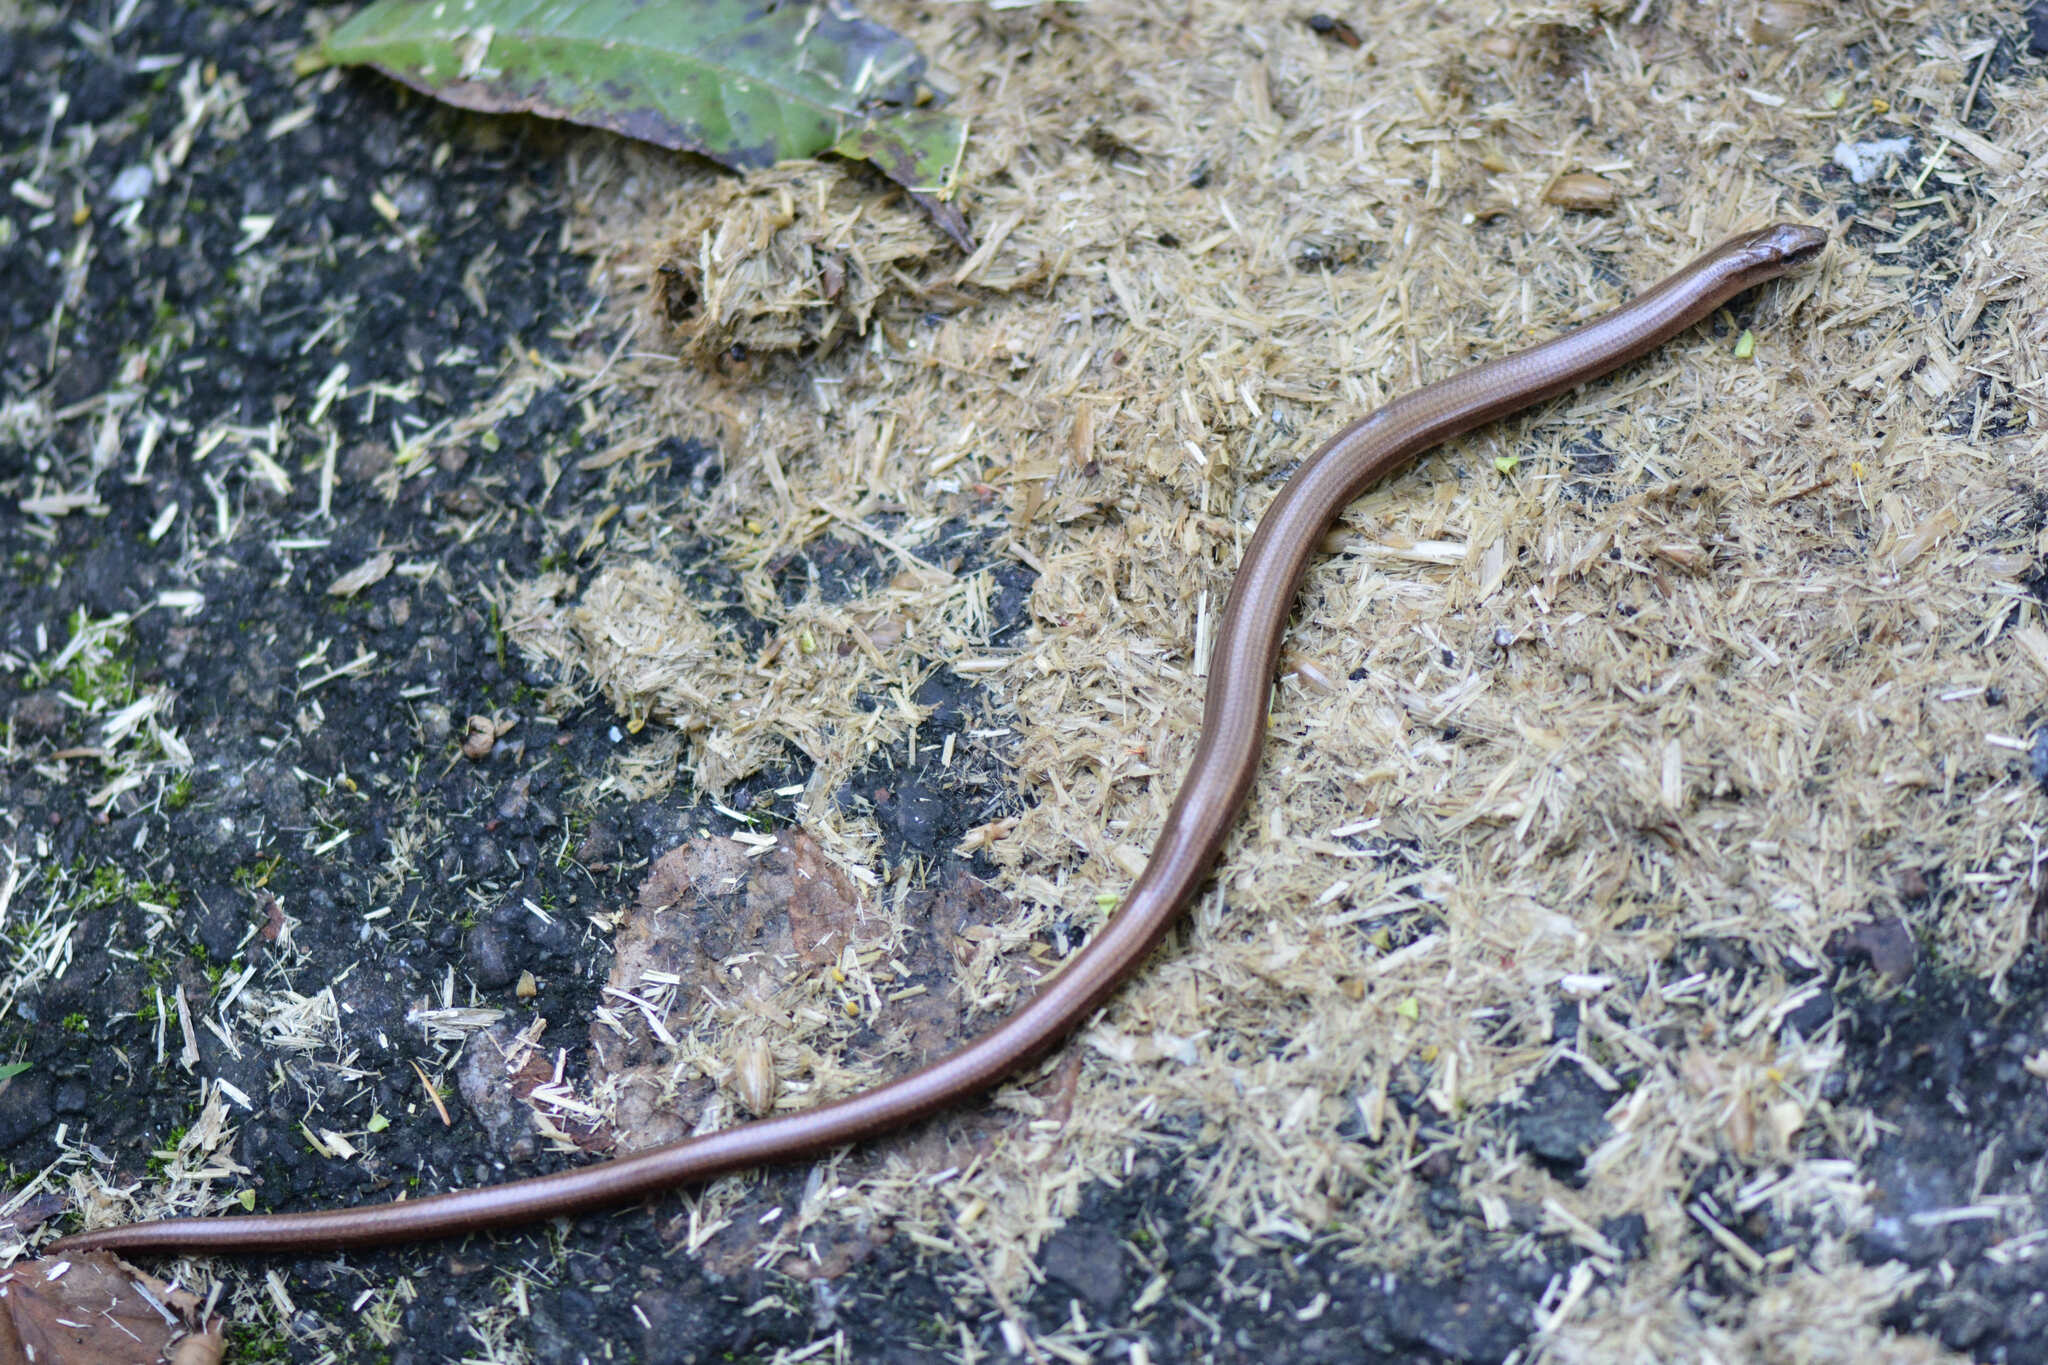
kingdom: Animalia
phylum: Chordata
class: Squamata
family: Anguidae
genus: Anguis
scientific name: Anguis fragilis
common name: Slow worm
